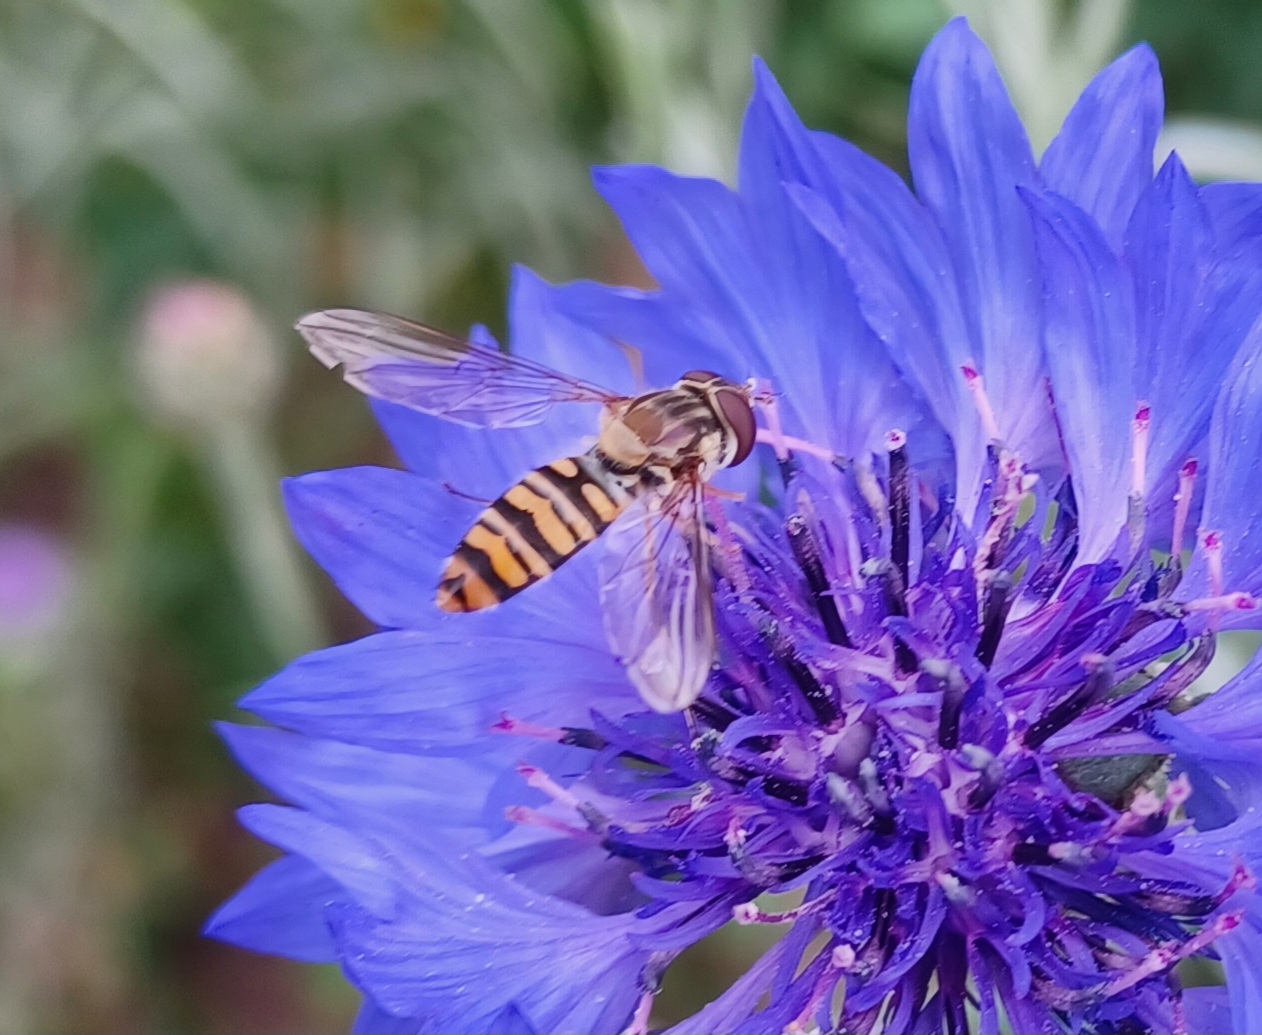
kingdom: Animalia
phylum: Arthropoda
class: Insecta
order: Diptera
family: Syrphidae
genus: Episyrphus
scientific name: Episyrphus balteatus
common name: Marmalade hoverfly
